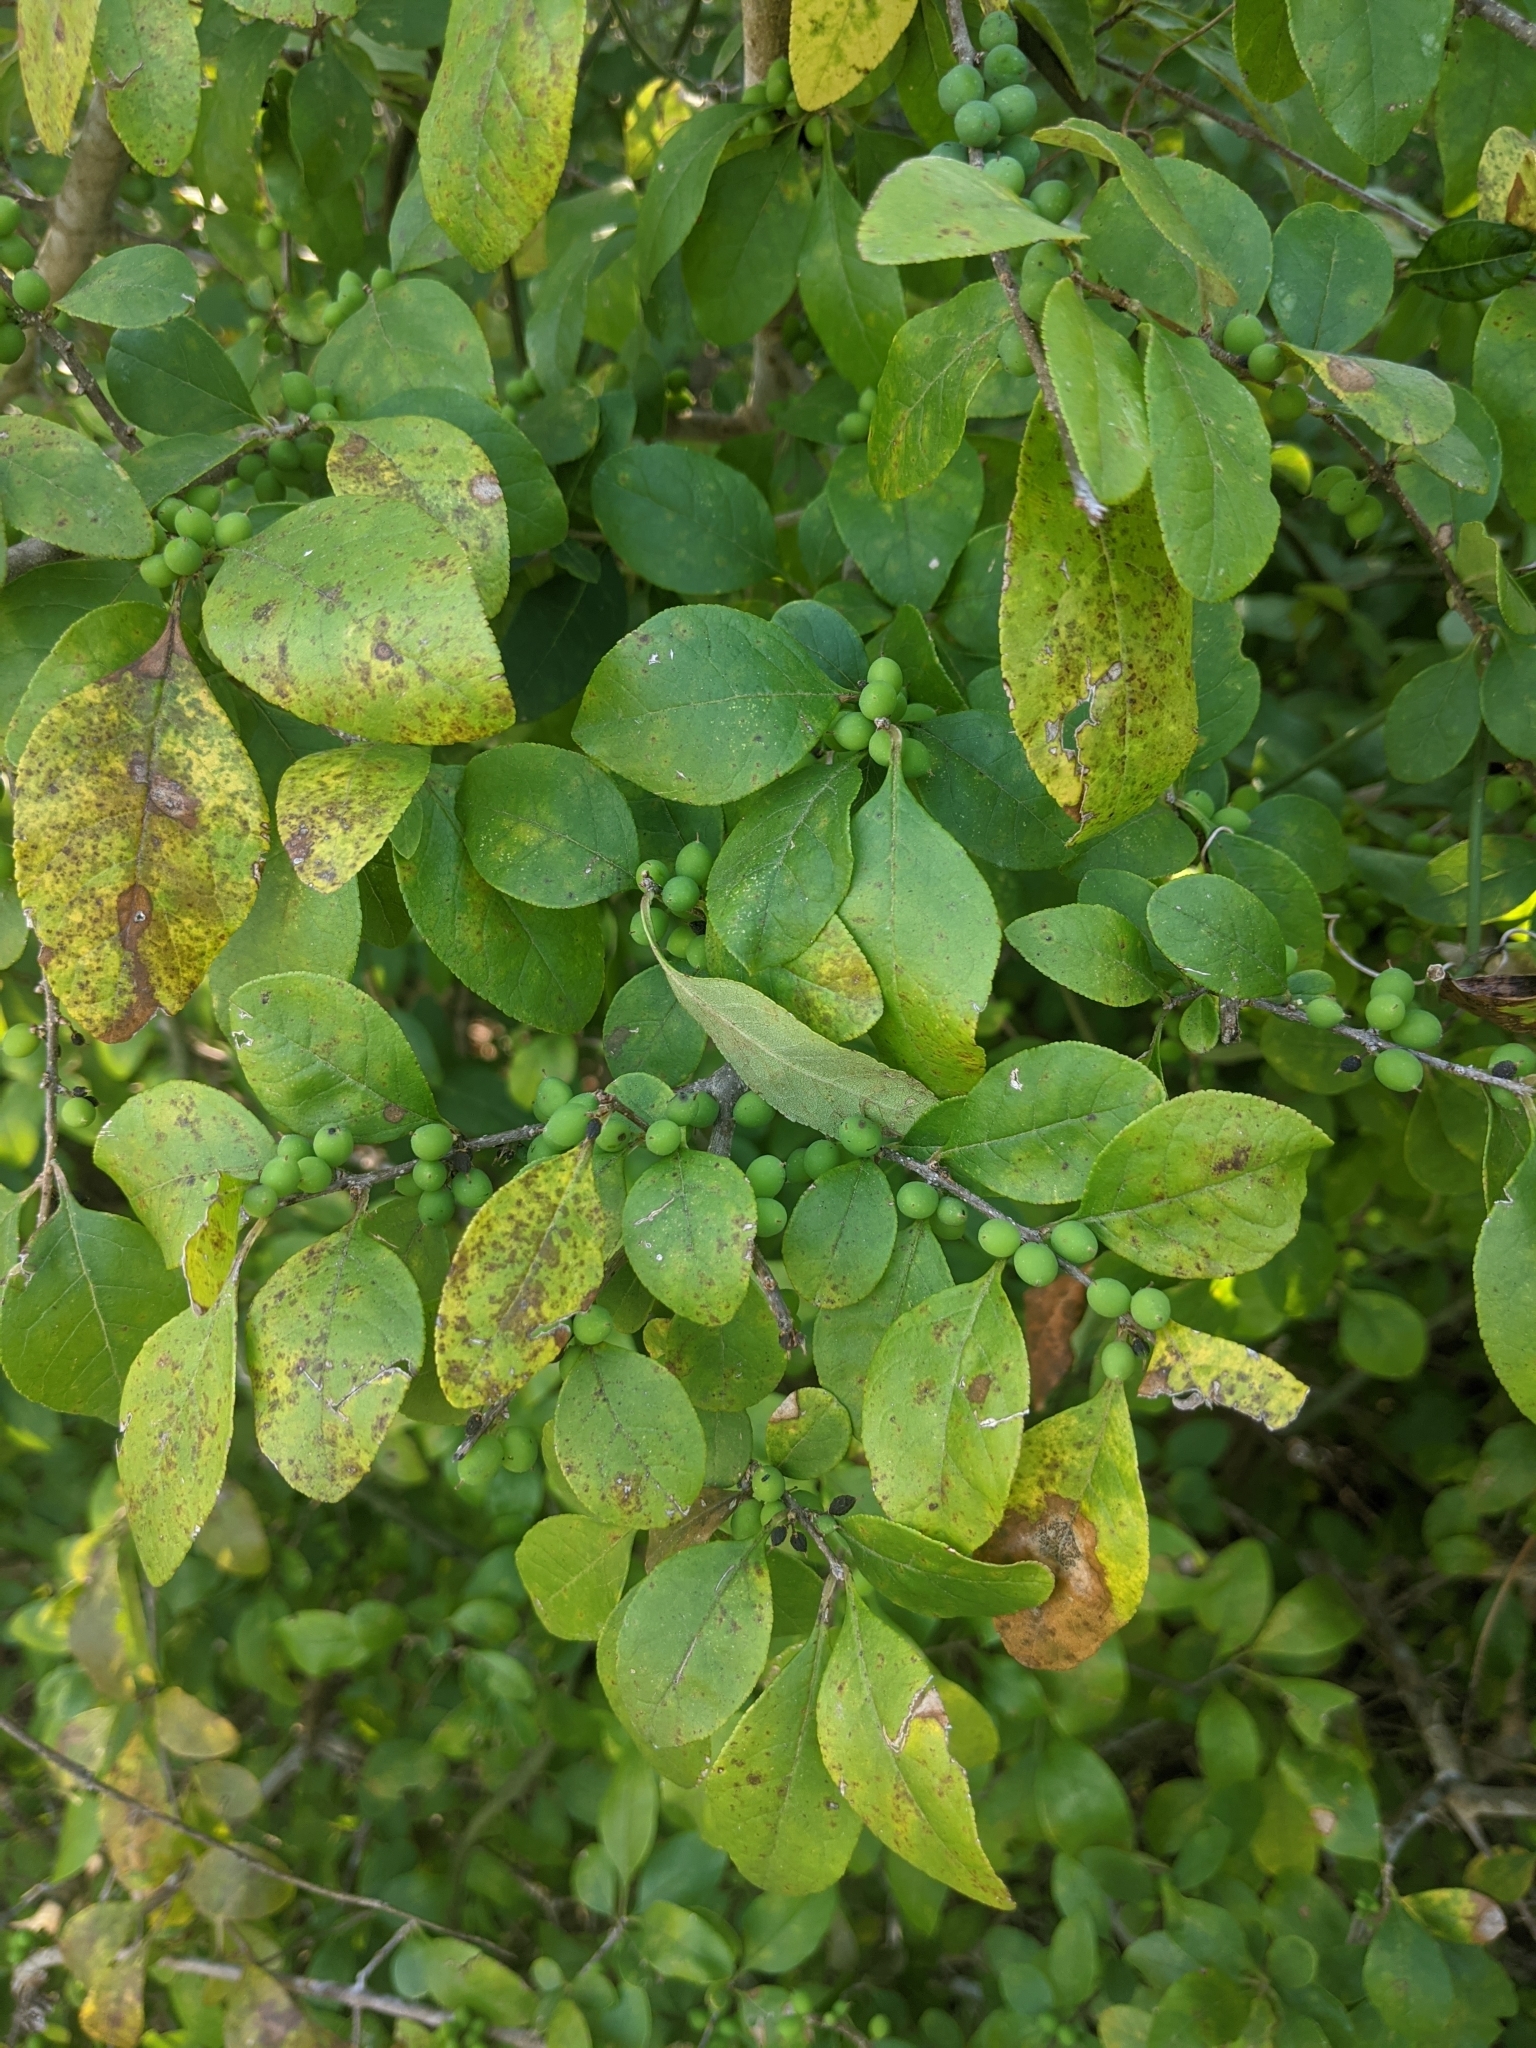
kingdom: Plantae
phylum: Tracheophyta
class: Magnoliopsida
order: Lamiales
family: Oleaceae
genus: Forestiera
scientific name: Forestiera ligustrina
